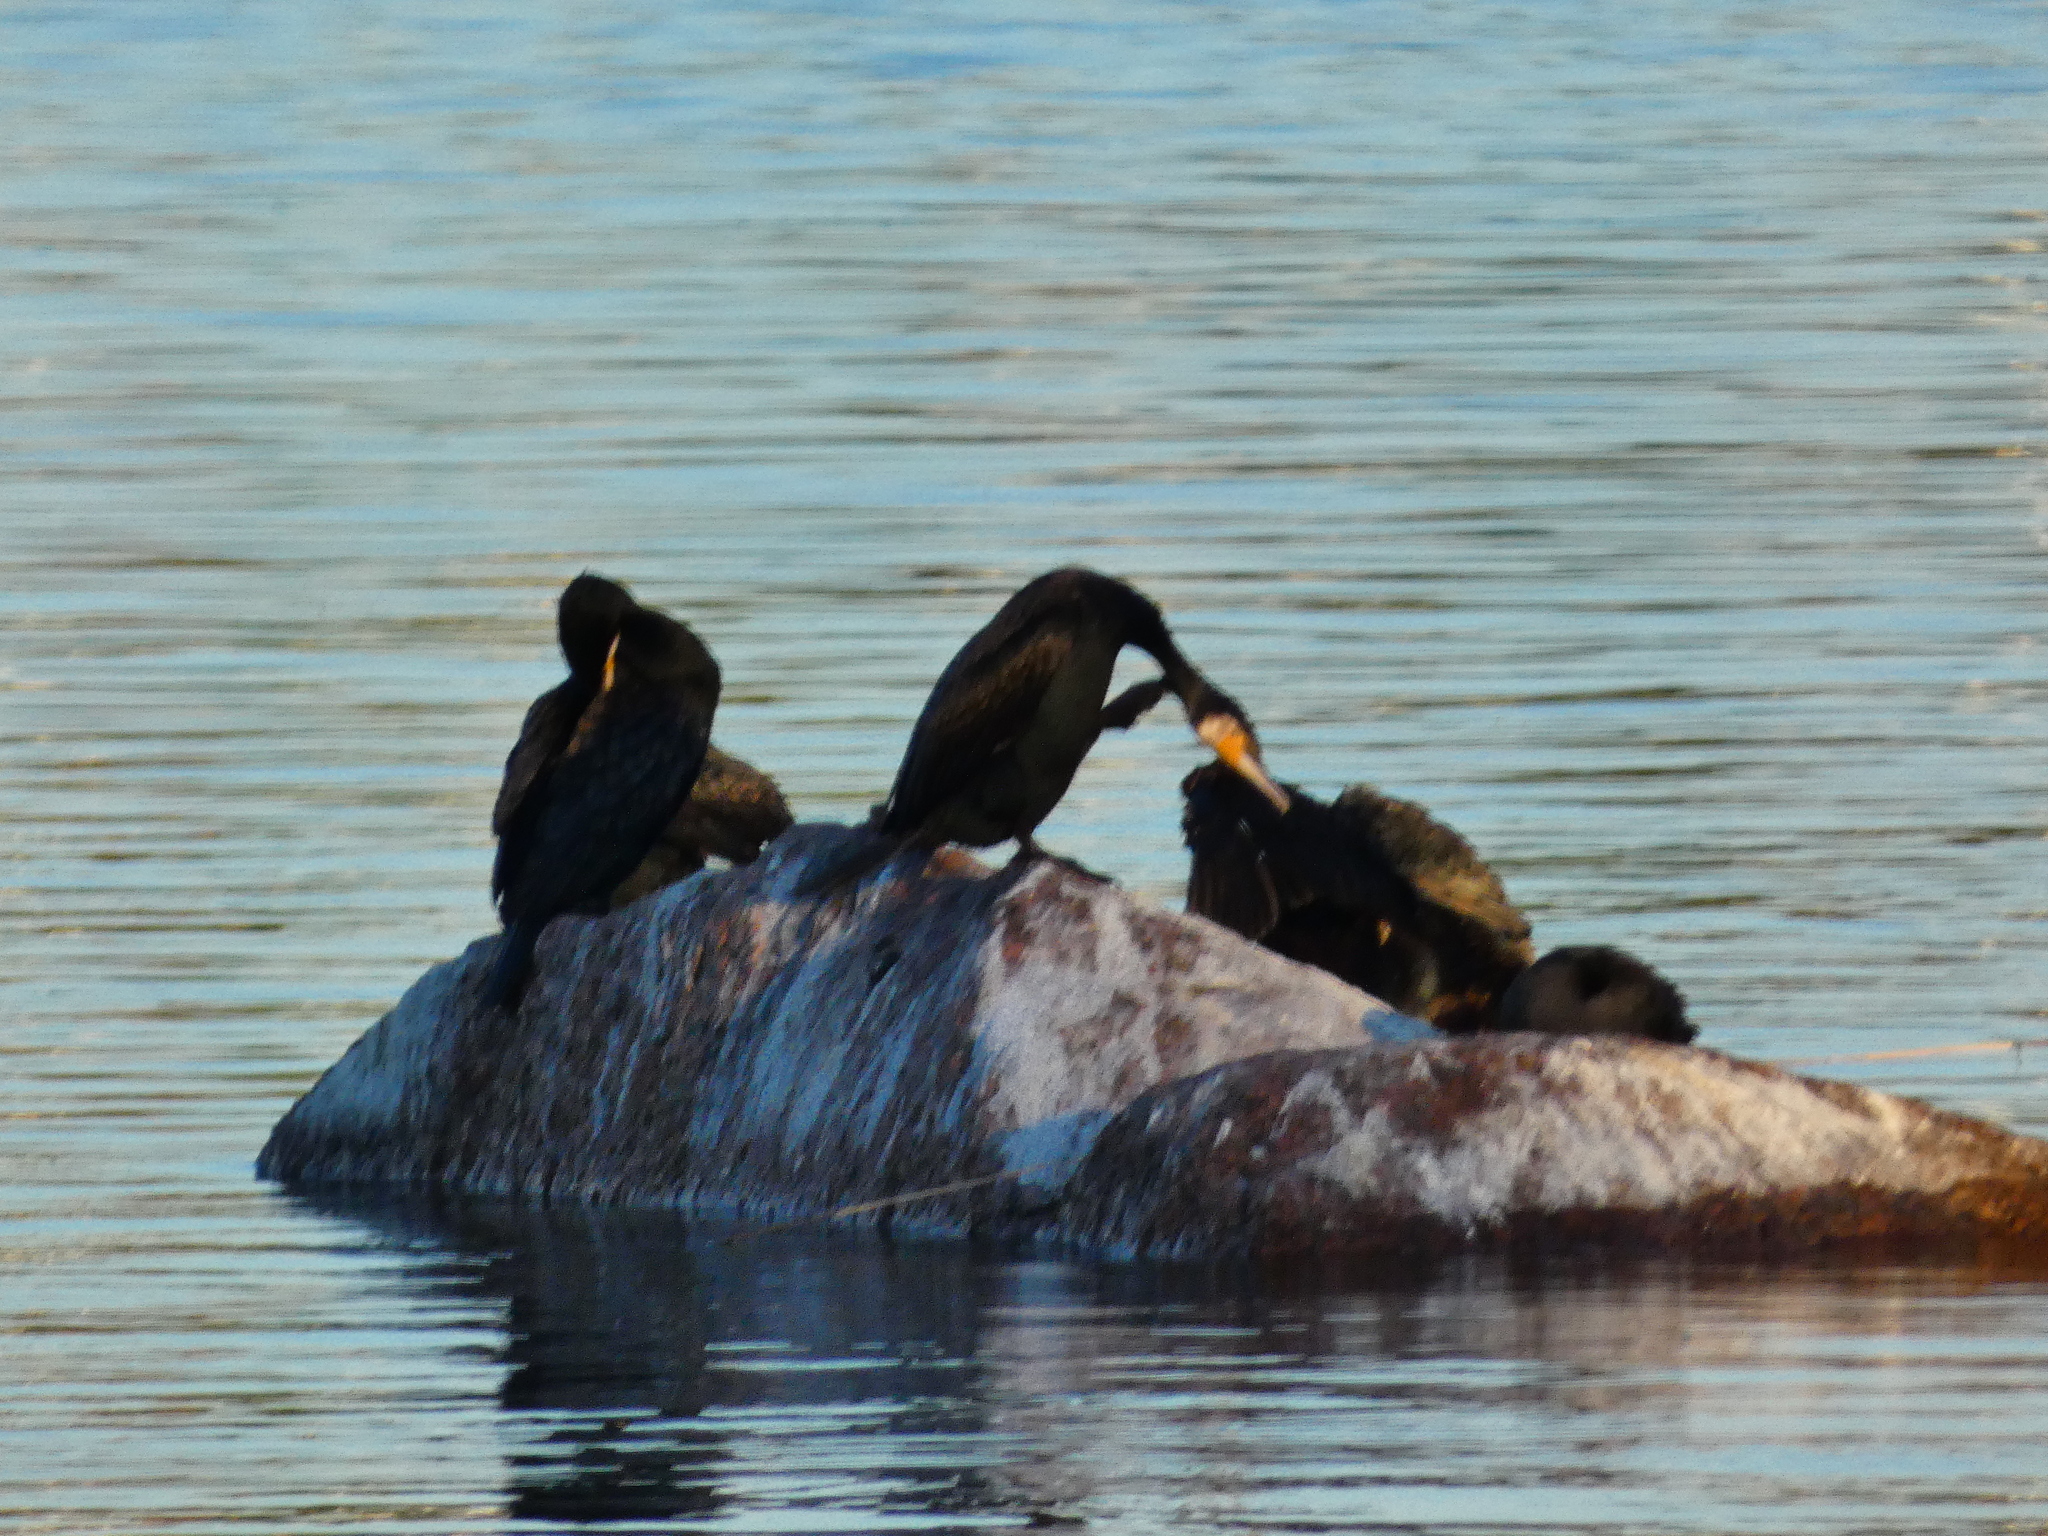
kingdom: Animalia
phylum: Chordata
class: Aves
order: Suliformes
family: Phalacrocoracidae
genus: Phalacrocorax
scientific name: Phalacrocorax carbo
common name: Great cormorant
